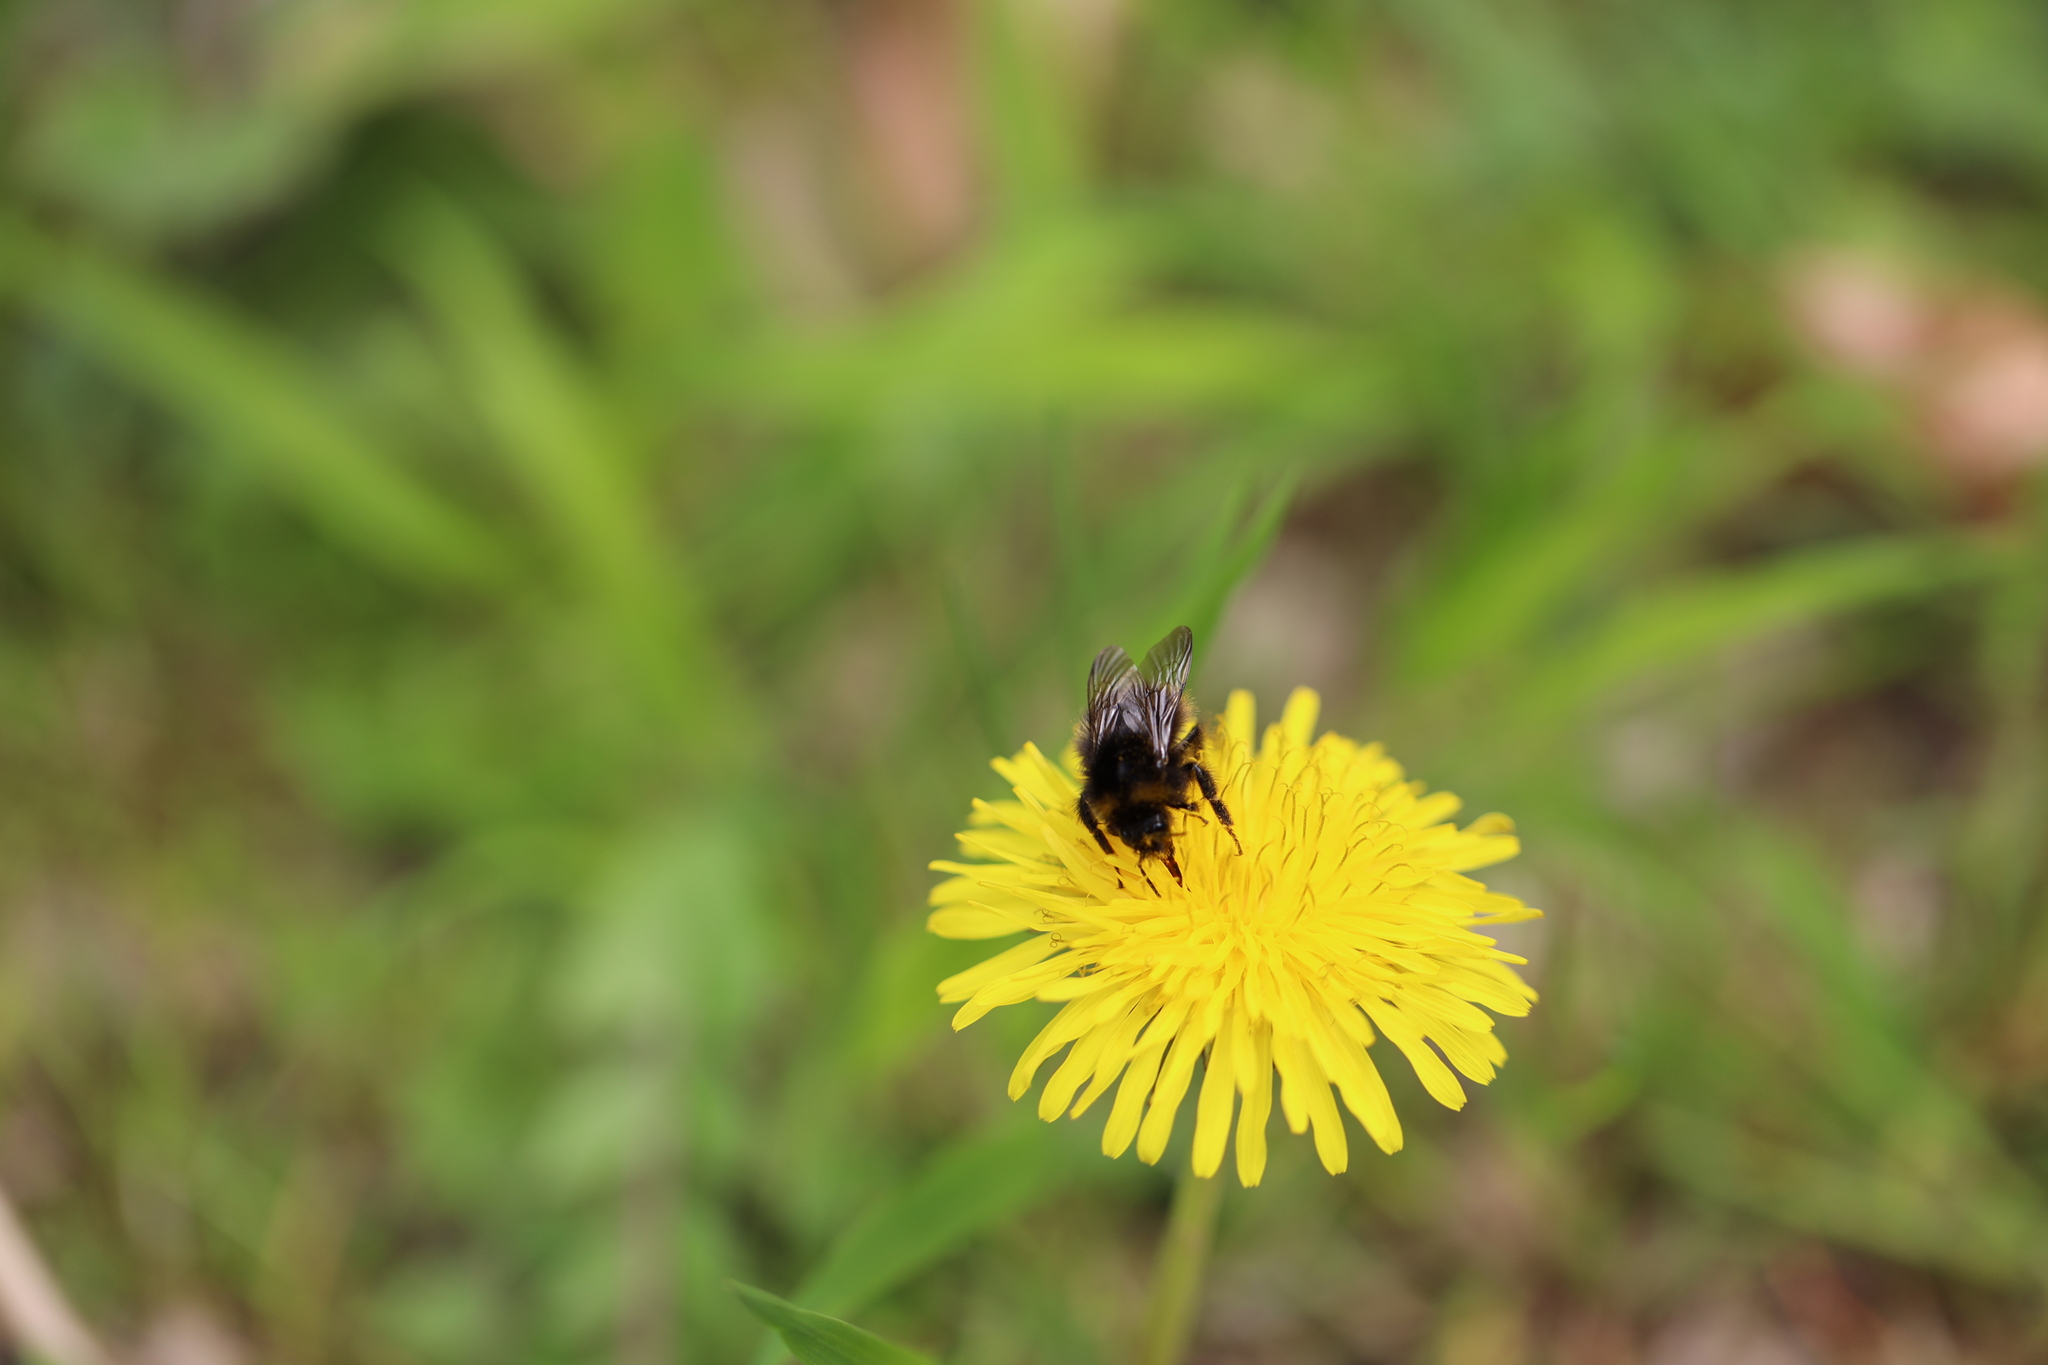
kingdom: Animalia
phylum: Arthropoda
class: Insecta
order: Hymenoptera
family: Apidae
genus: Bombus
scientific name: Bombus pratorum
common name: Early humble-bee
